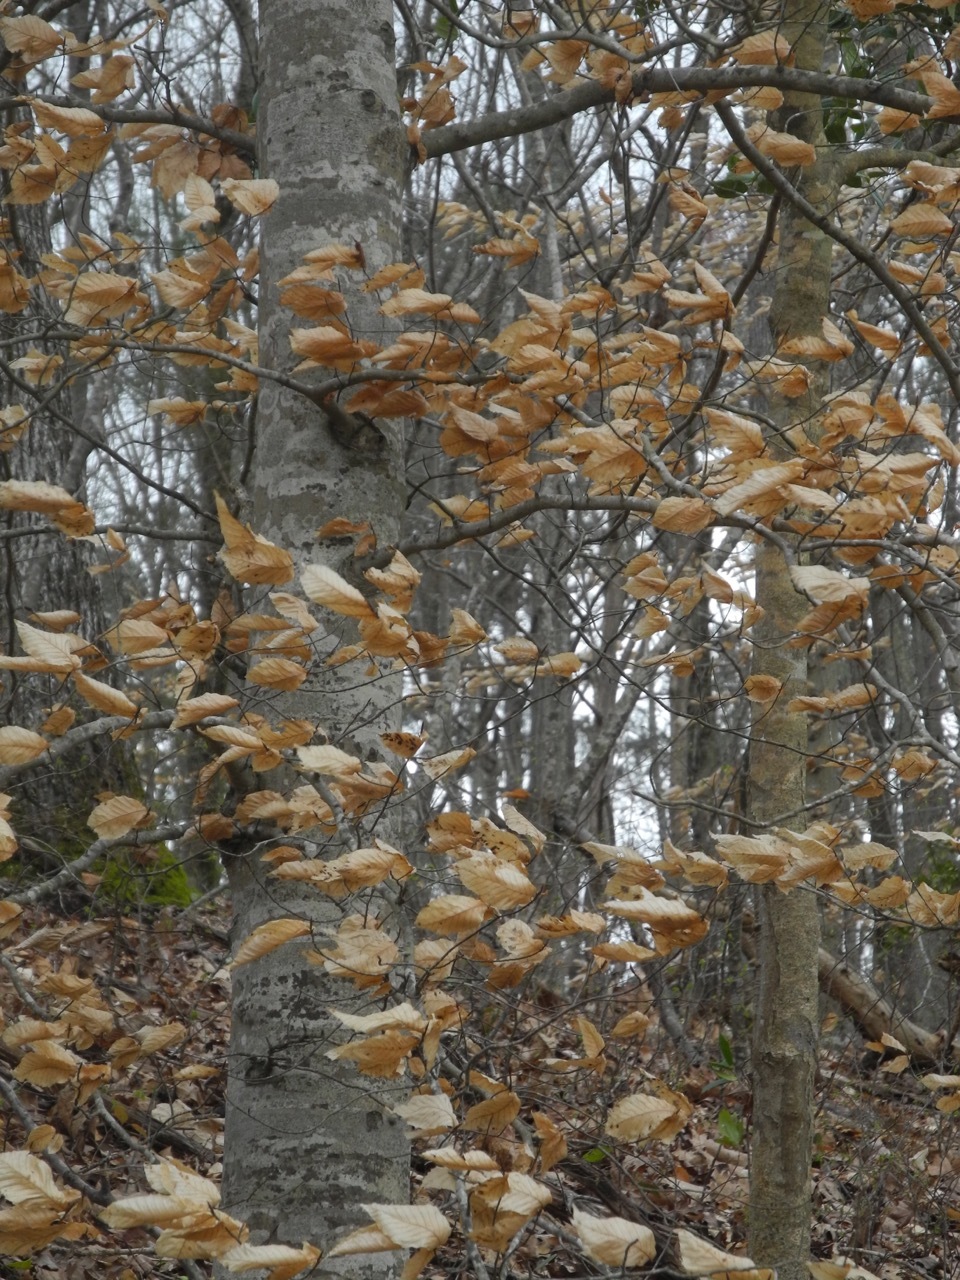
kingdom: Plantae
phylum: Tracheophyta
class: Magnoliopsida
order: Fagales
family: Fagaceae
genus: Fagus
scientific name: Fagus grandifolia
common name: American beech
